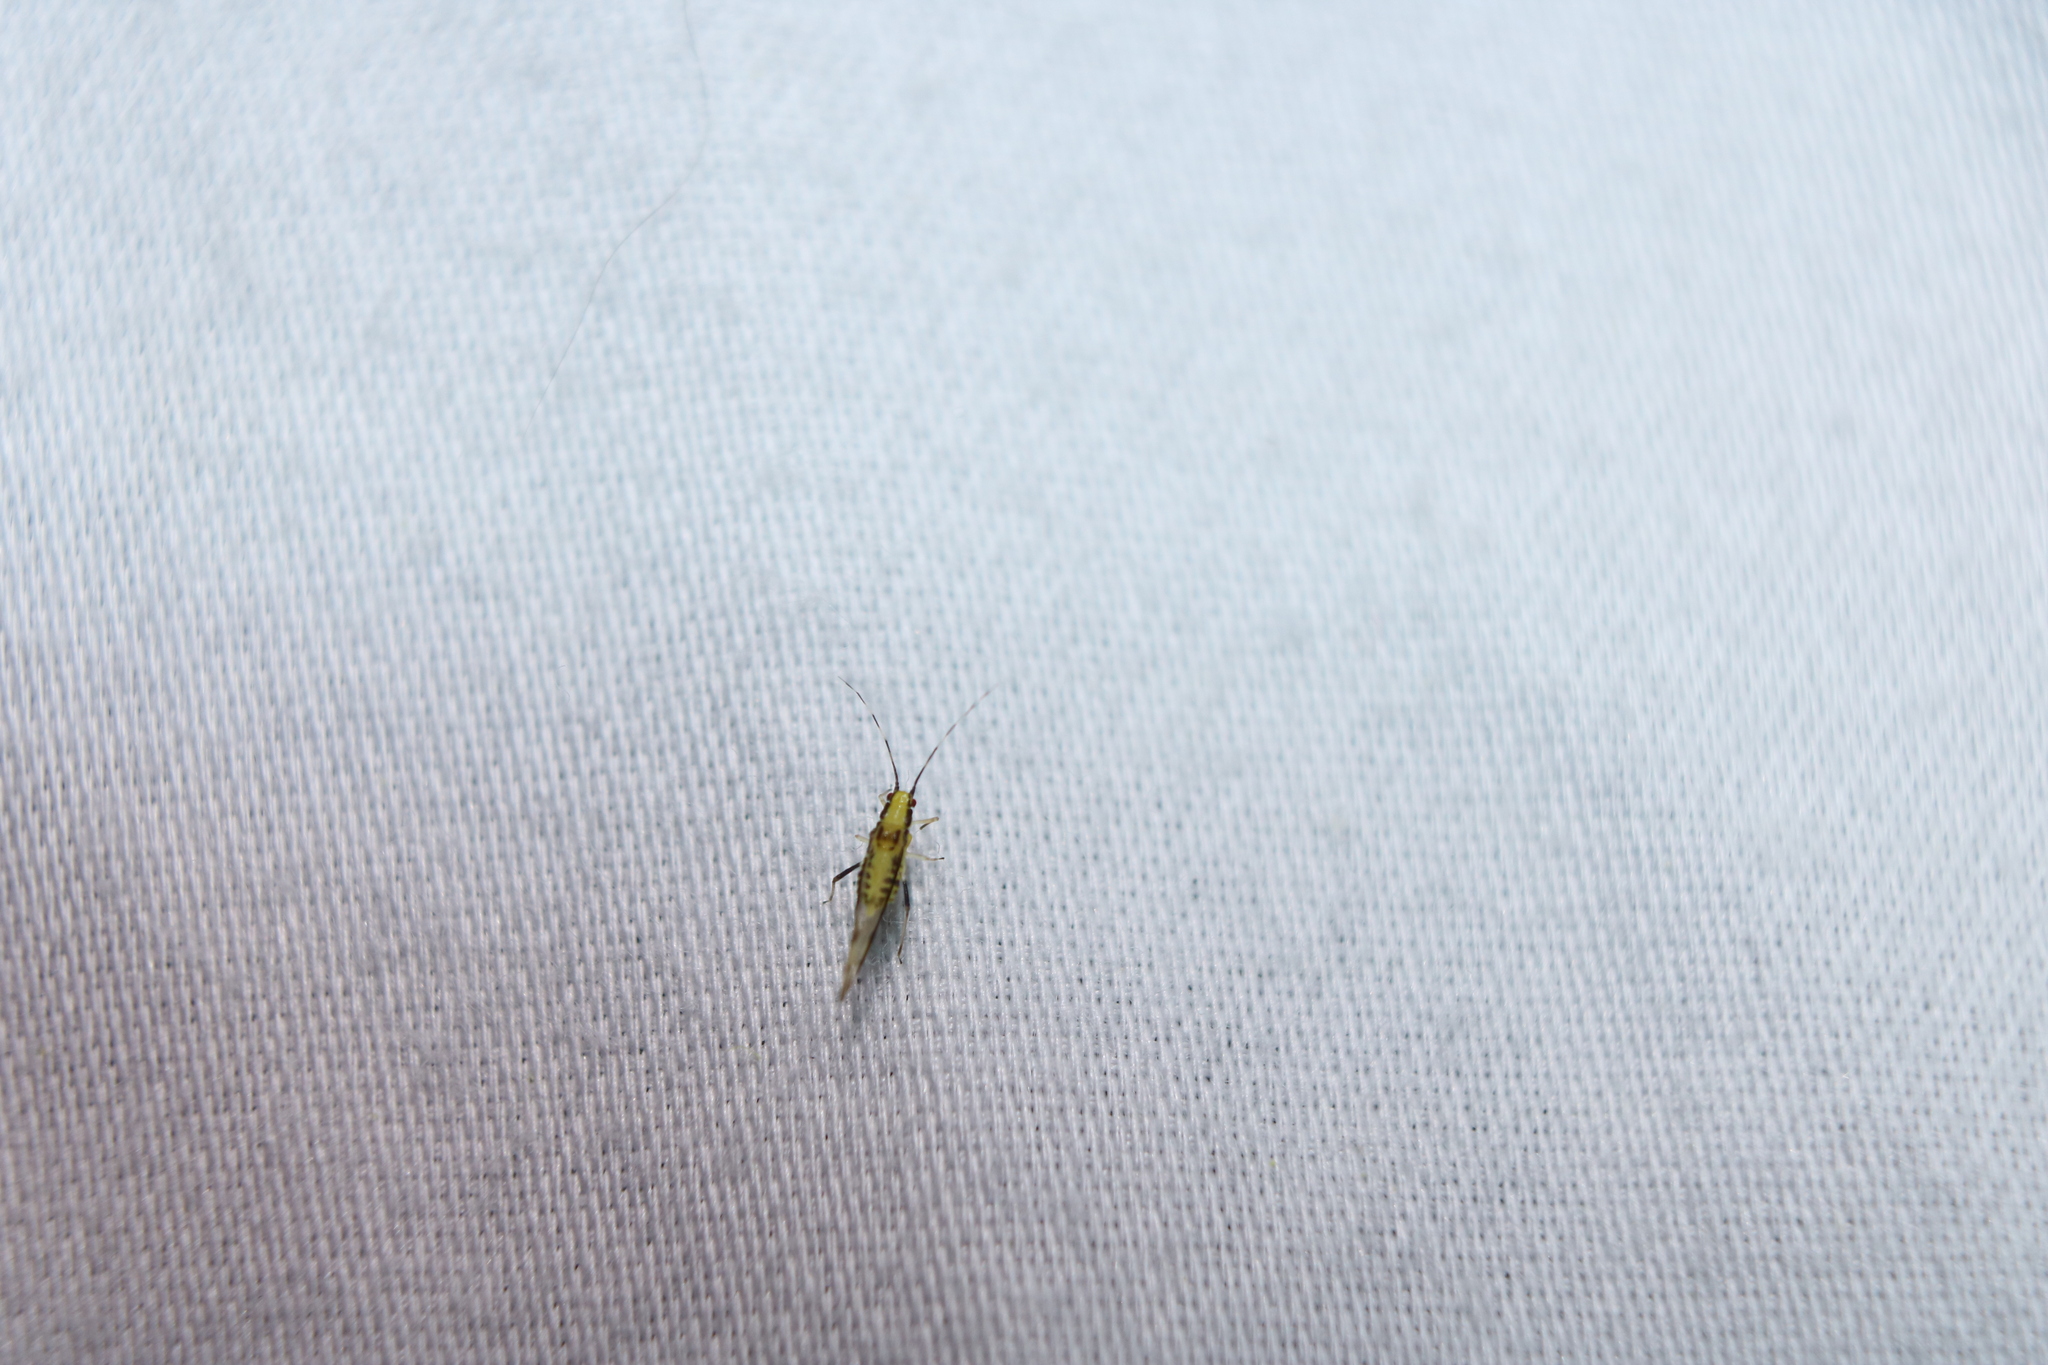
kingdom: Animalia
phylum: Arthropoda
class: Insecta
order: Hemiptera
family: Aphididae
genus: Eucallipterus
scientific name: Eucallipterus tiliae
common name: Aphid
